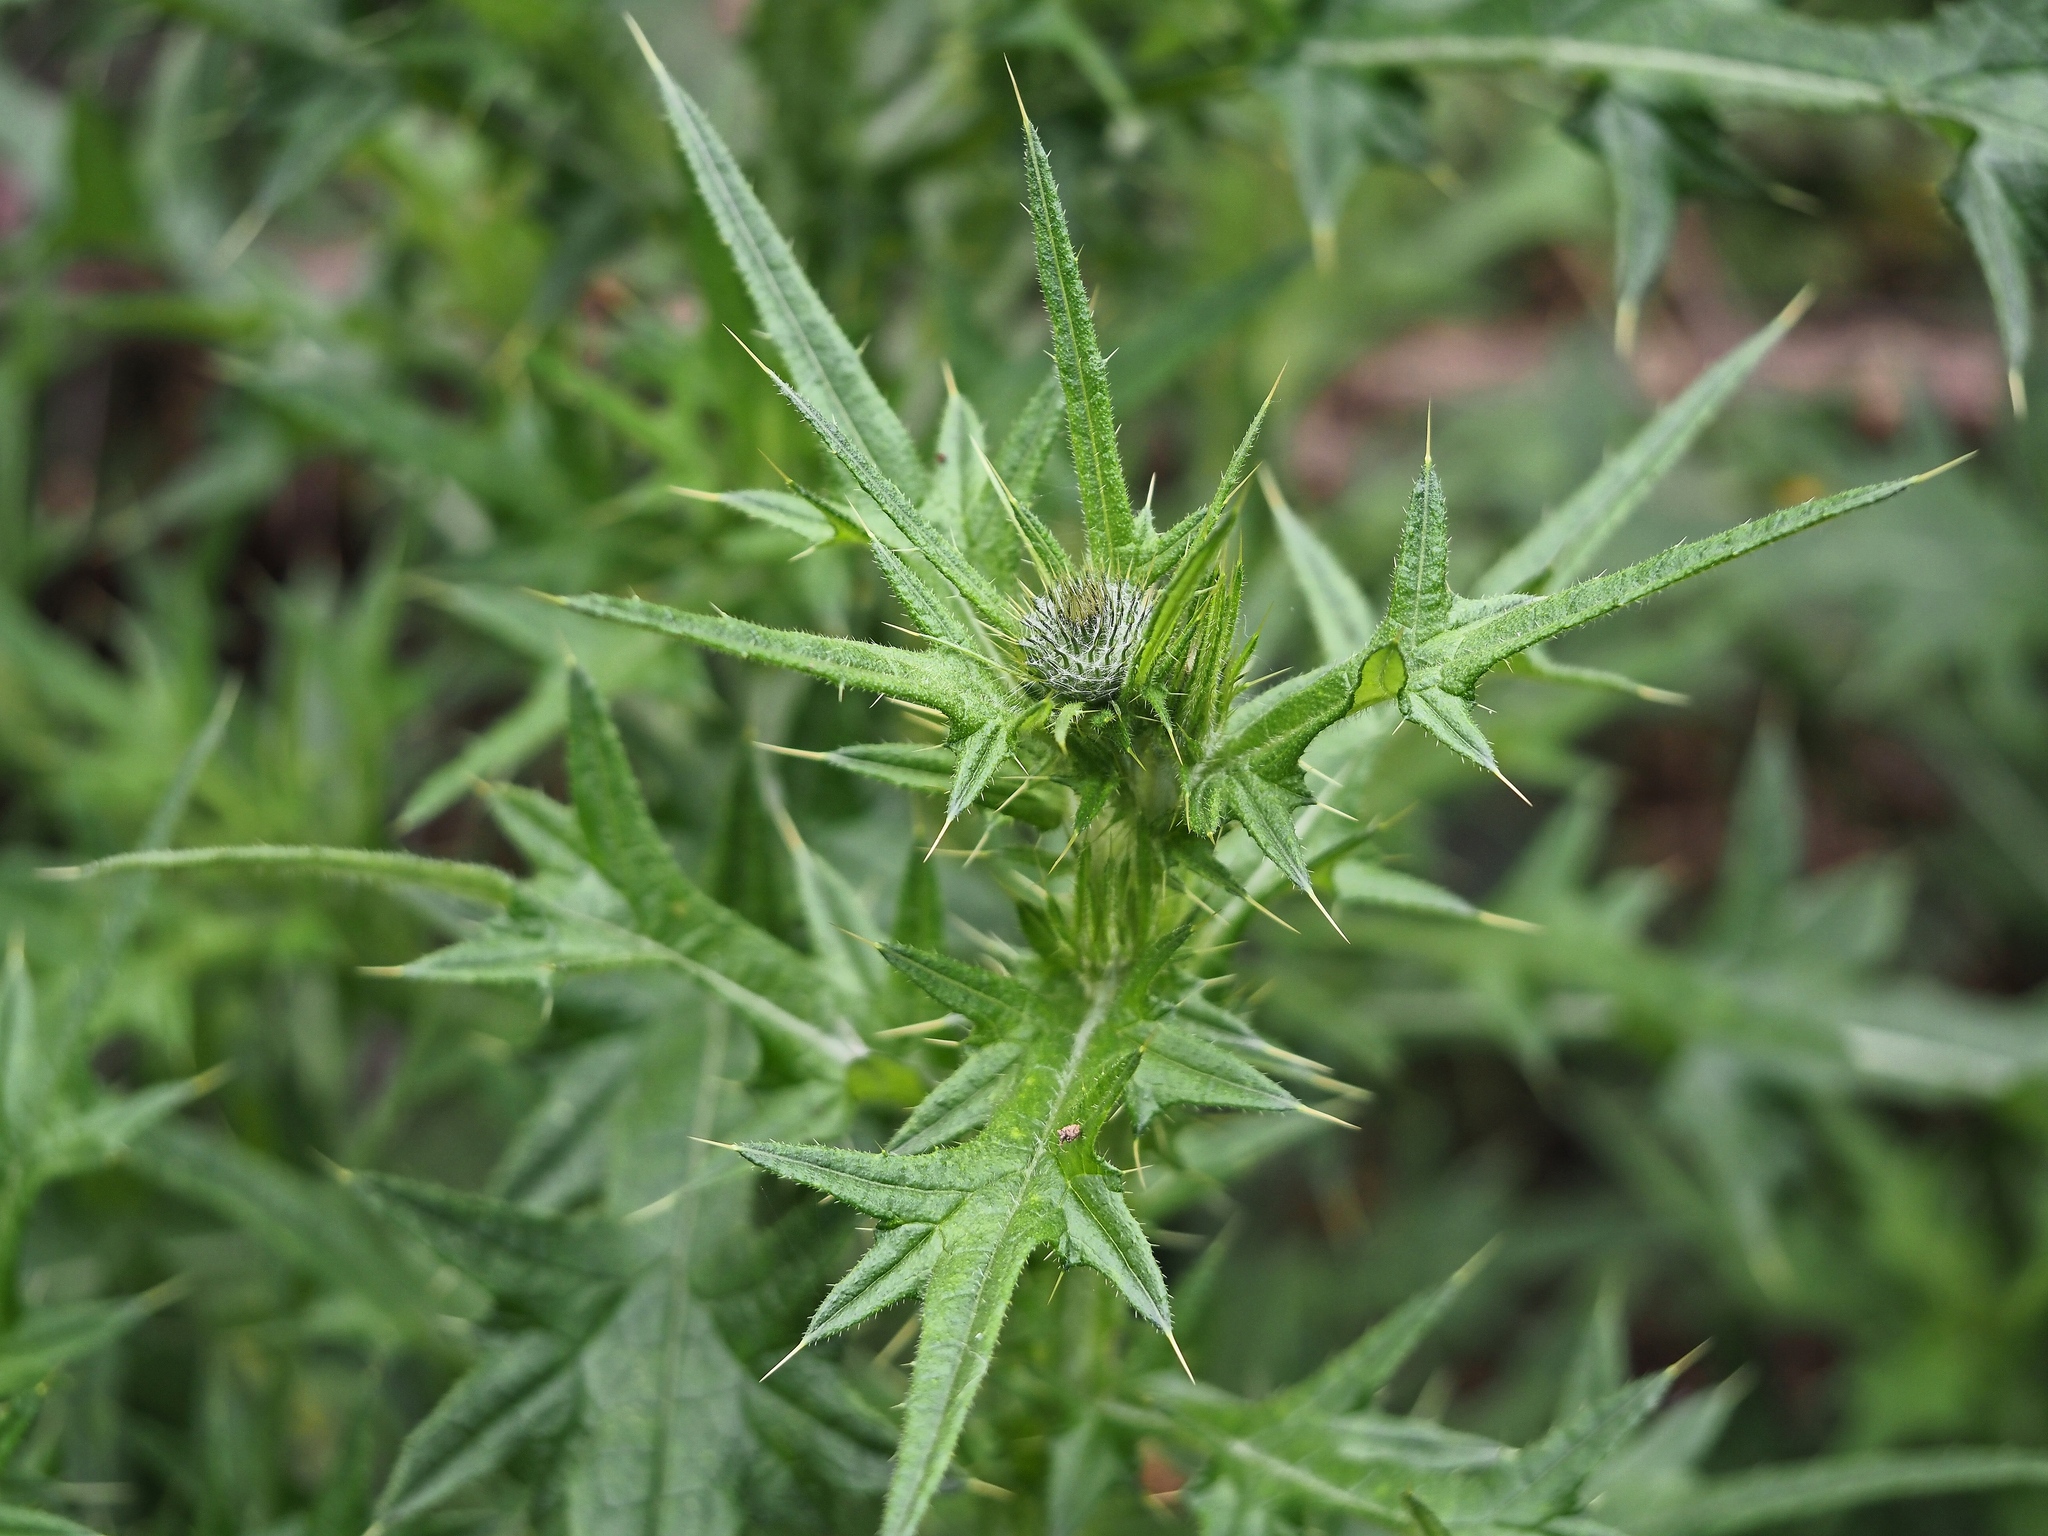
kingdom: Plantae
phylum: Tracheophyta
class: Magnoliopsida
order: Asterales
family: Asteraceae
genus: Cirsium
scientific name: Cirsium vulgare
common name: Bull thistle
